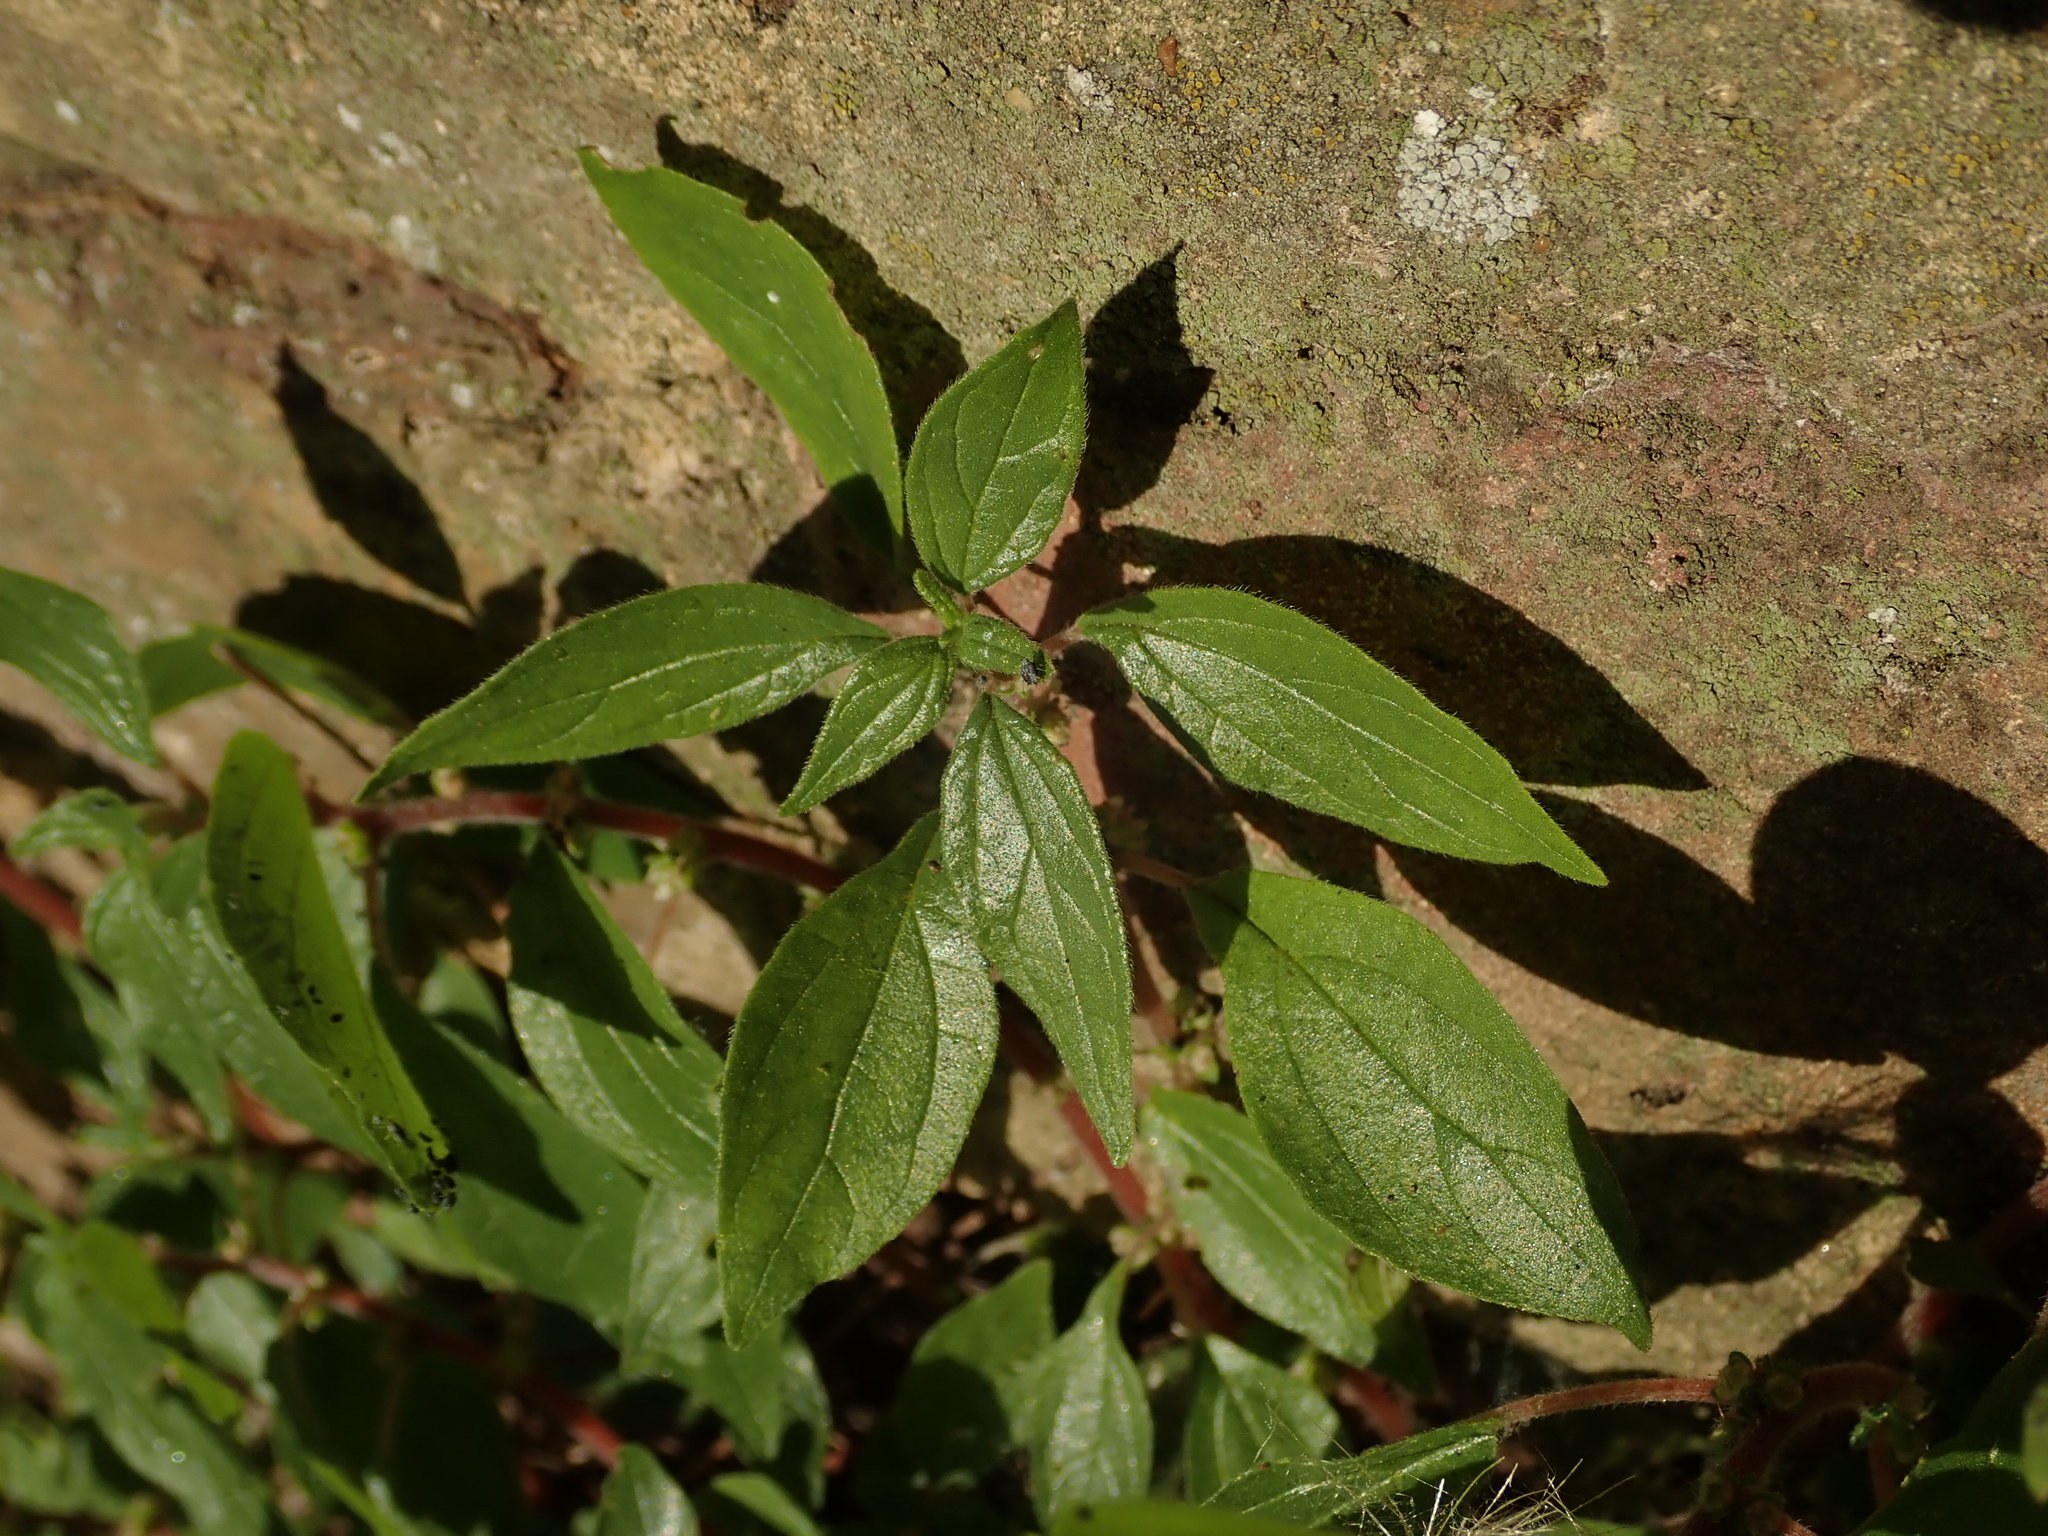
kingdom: Plantae
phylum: Tracheophyta
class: Magnoliopsida
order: Rosales
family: Urticaceae
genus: Parietaria
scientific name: Parietaria judaica
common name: Pellitory-of-the-wall
